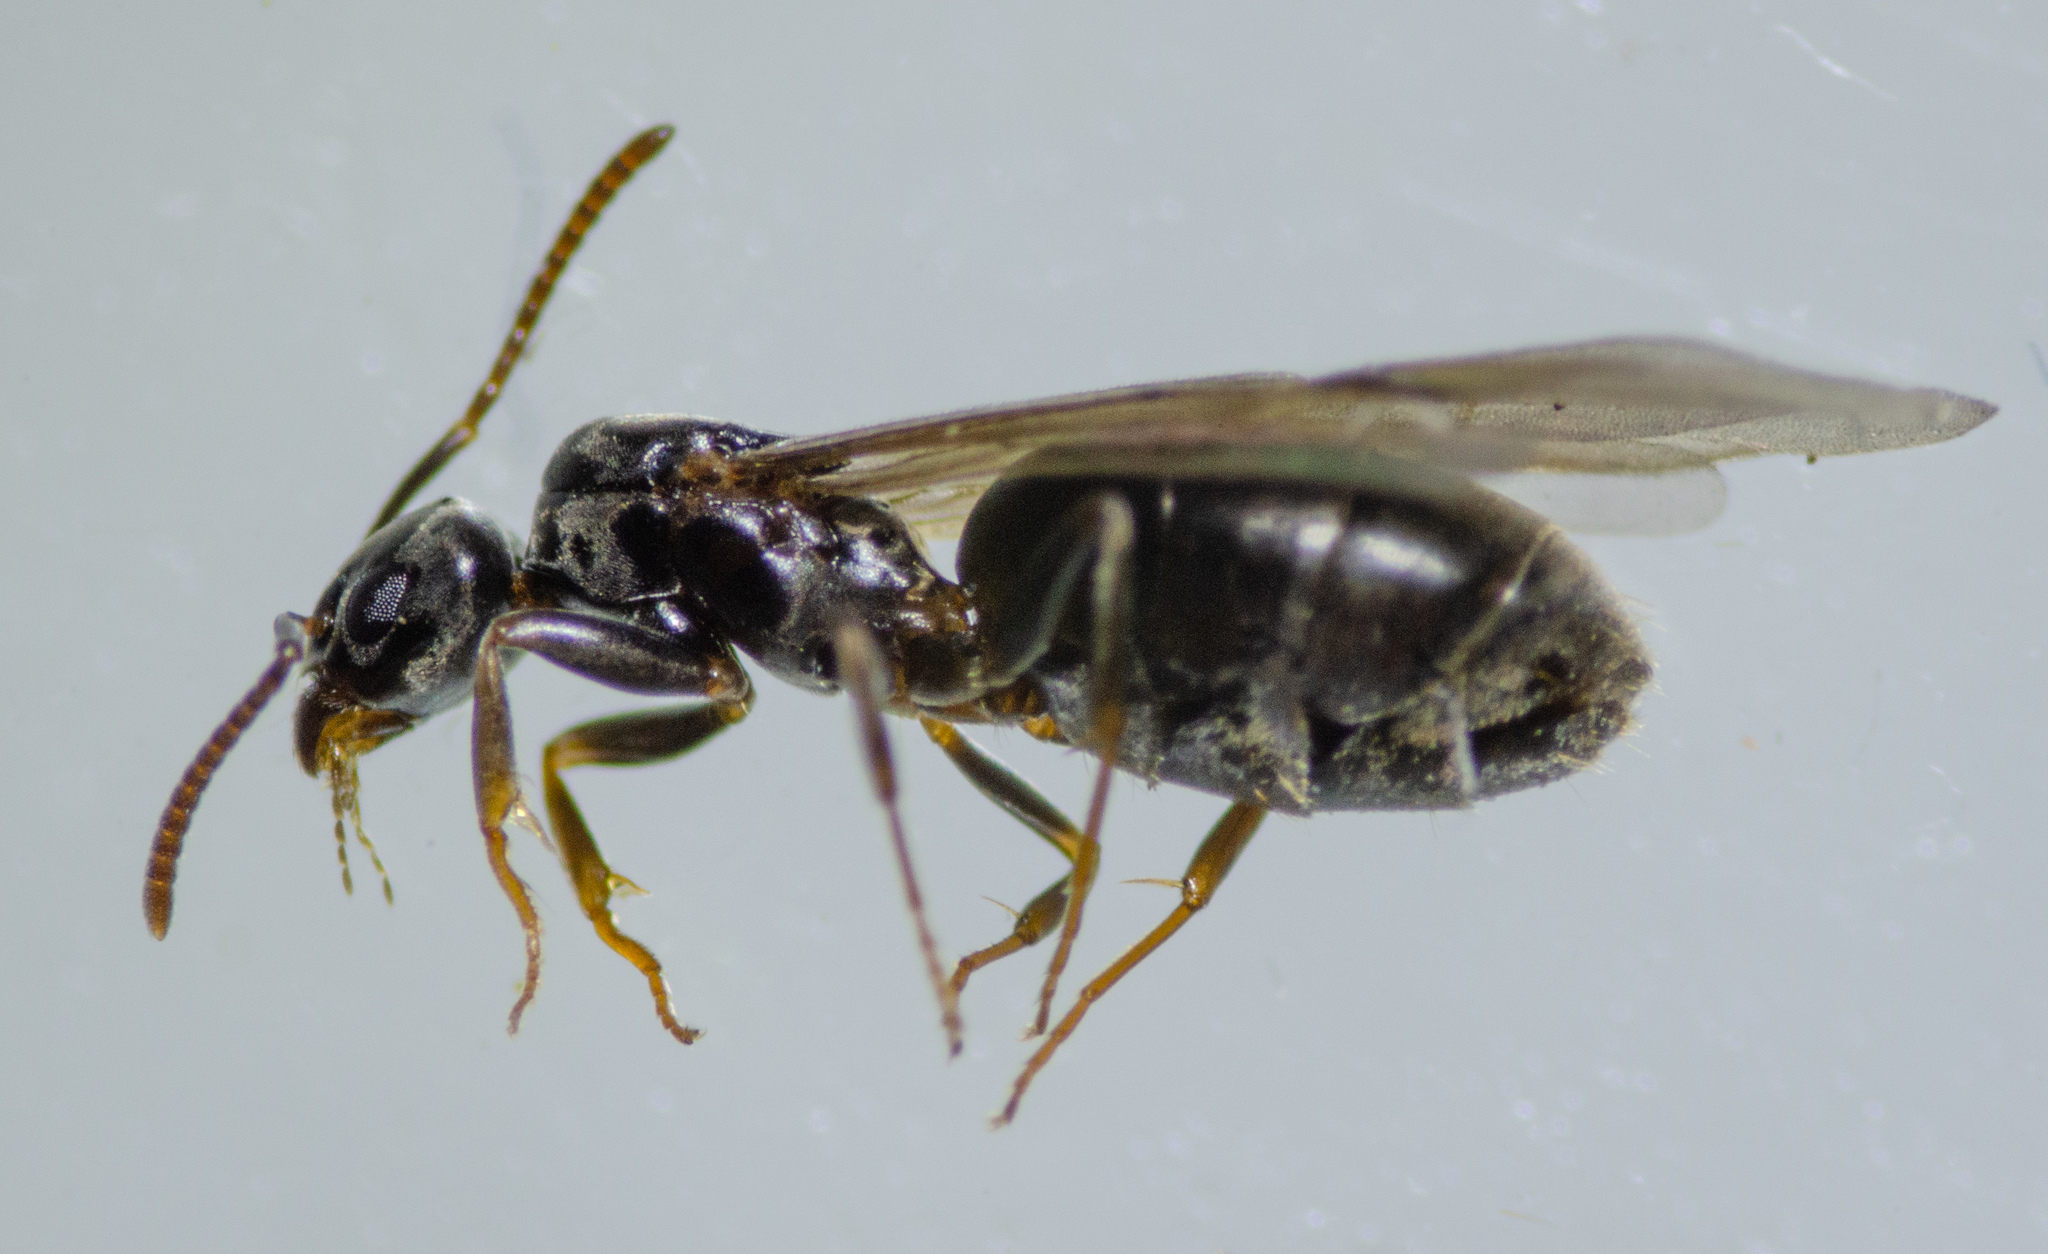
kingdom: Animalia
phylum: Arthropoda
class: Insecta
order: Hymenoptera
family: Formicidae
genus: Tapinoma
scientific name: Tapinoma sessile
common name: Odorous house ant
